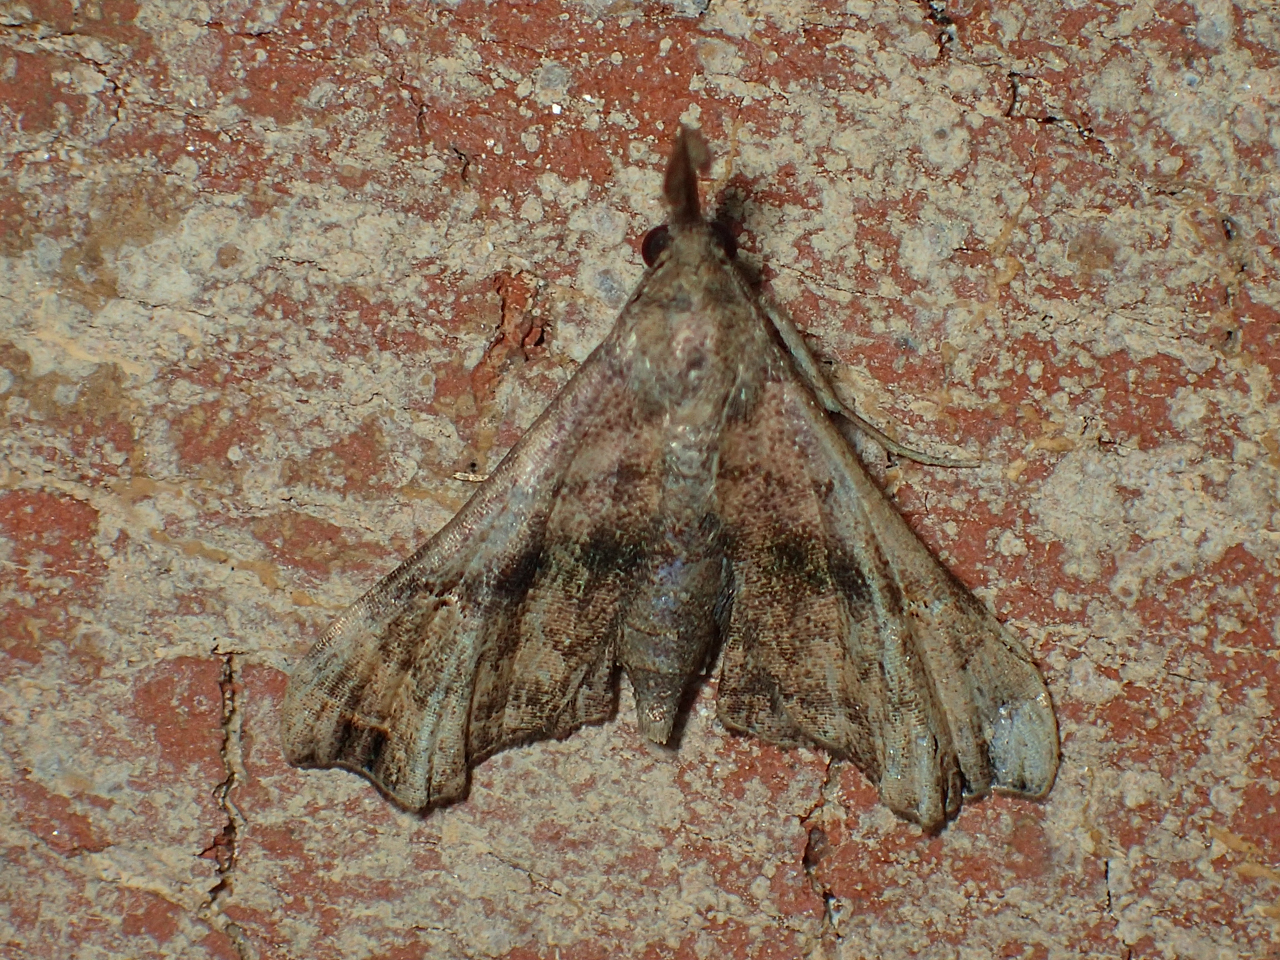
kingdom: Animalia
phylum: Arthropoda
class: Insecta
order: Lepidoptera
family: Erebidae
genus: Palthis
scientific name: Palthis asopialis
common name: Faint-spotted palthis moth
